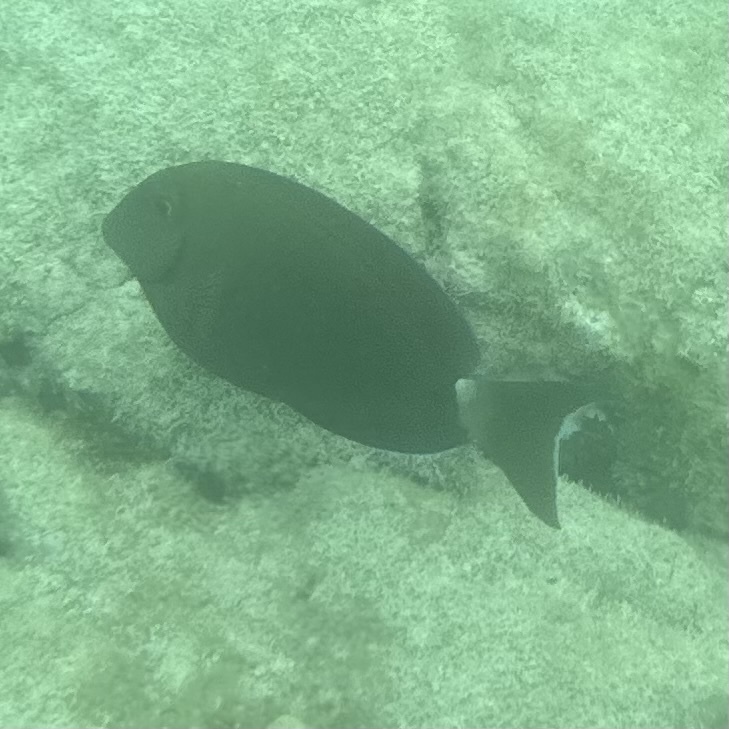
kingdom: Animalia
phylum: Chordata
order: Perciformes
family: Acanthuridae
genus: Acanthurus
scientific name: Acanthurus bahianus
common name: Ocean surgeon
